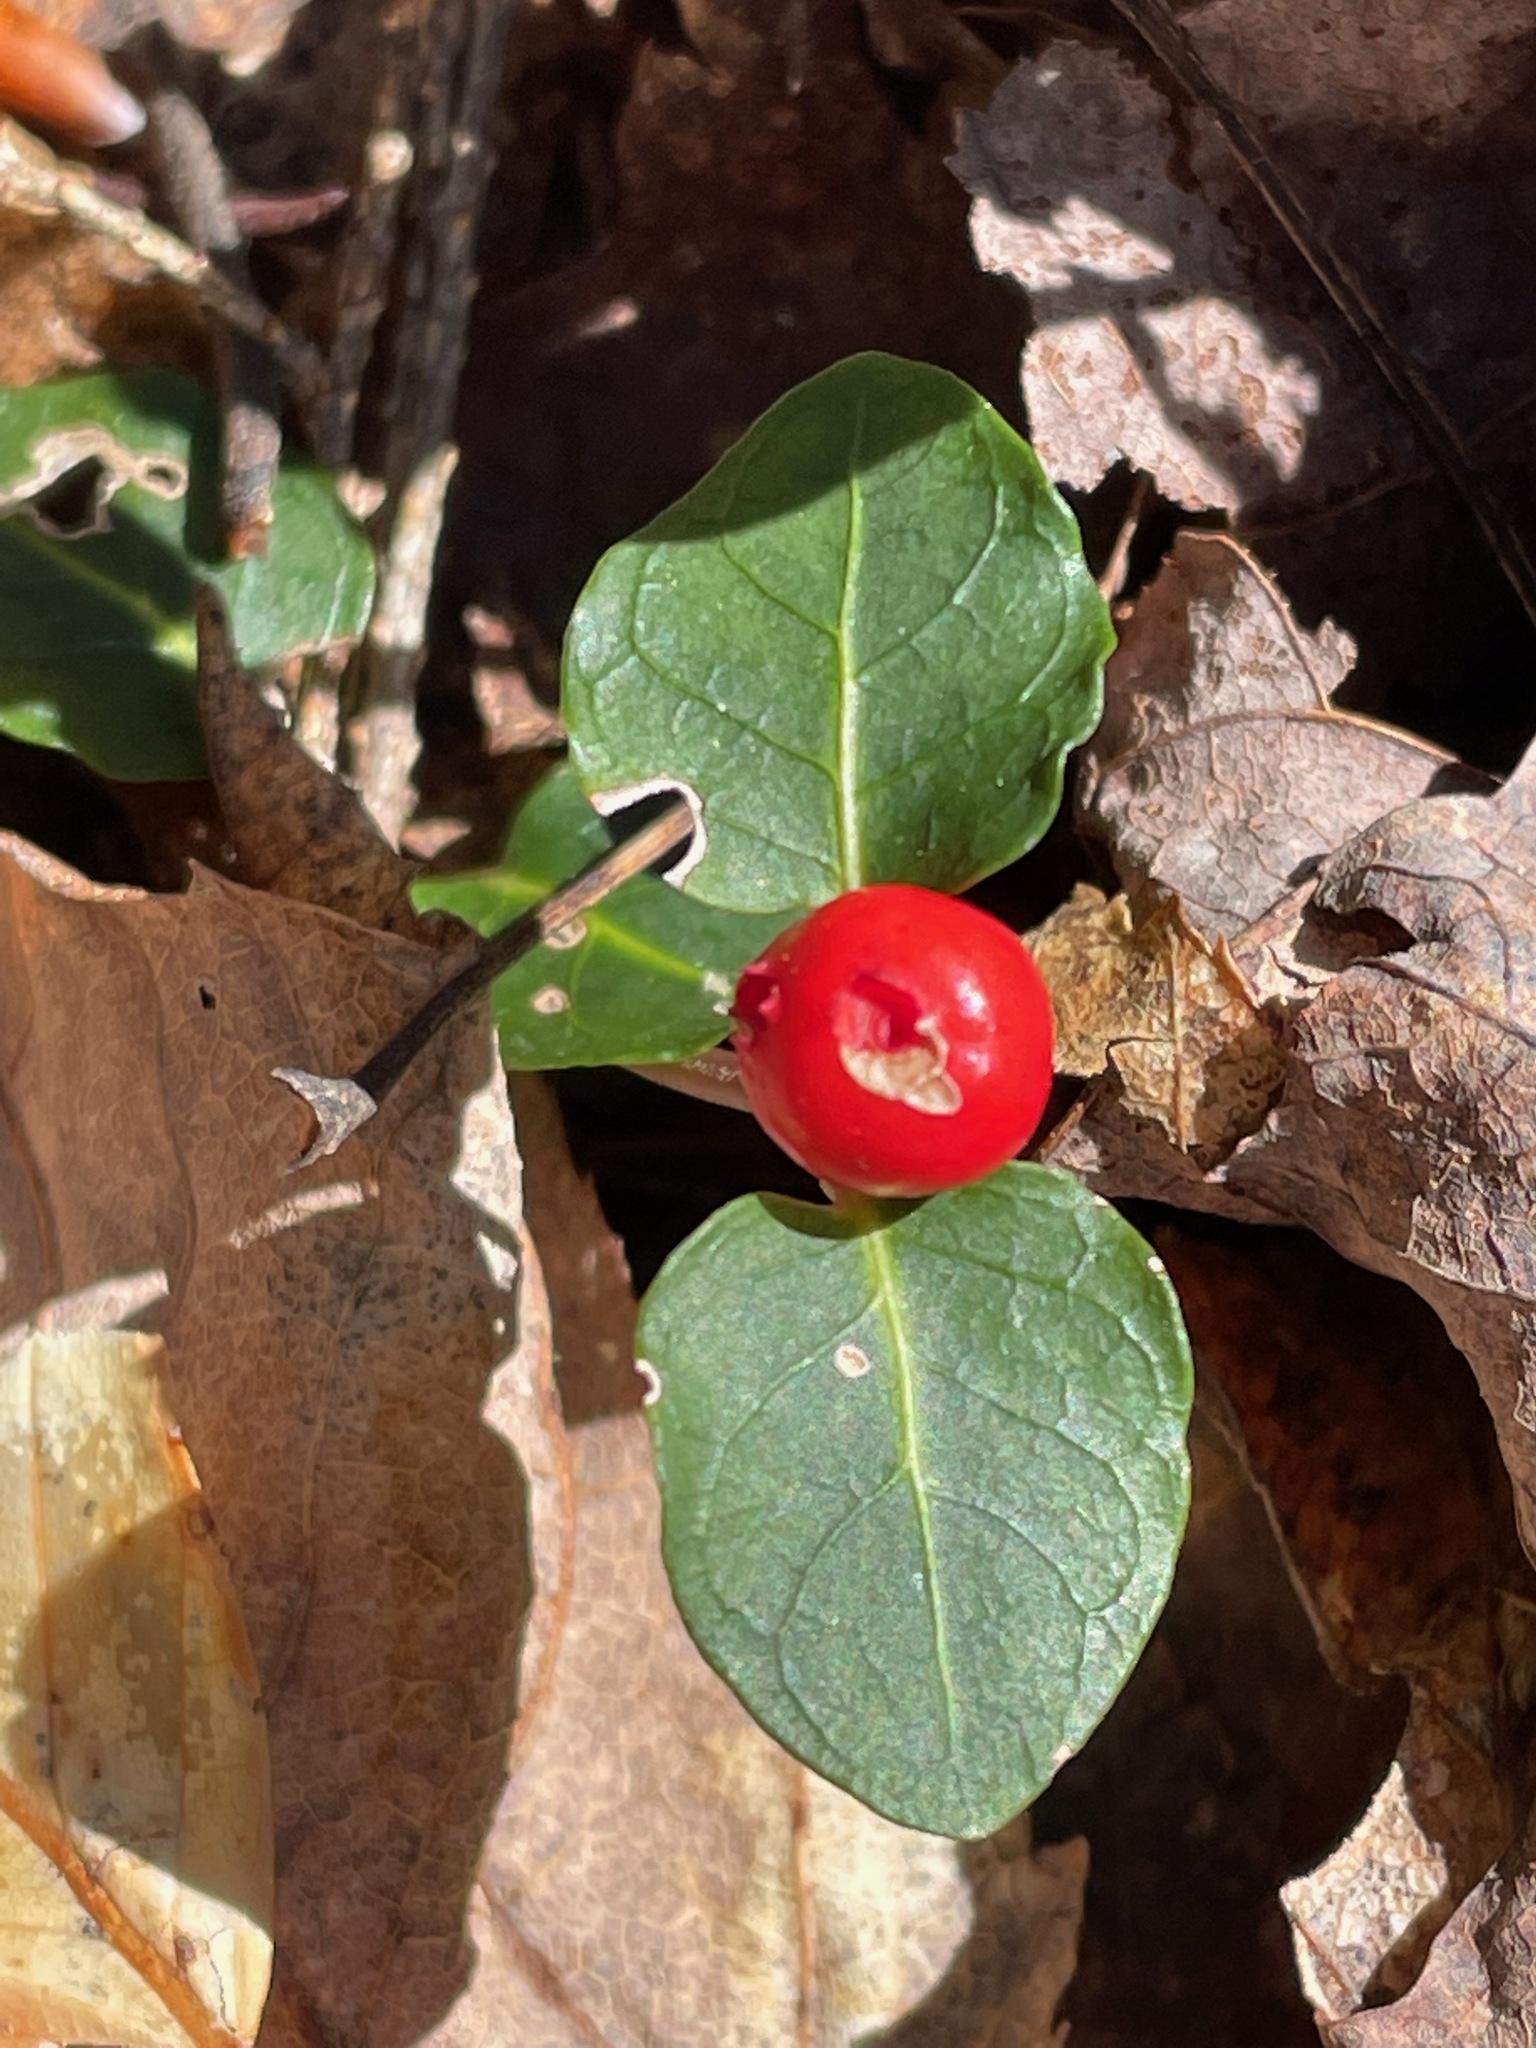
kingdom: Plantae
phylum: Tracheophyta
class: Magnoliopsida
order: Gentianales
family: Rubiaceae
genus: Mitchella
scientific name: Mitchella repens
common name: Partridge-berry
